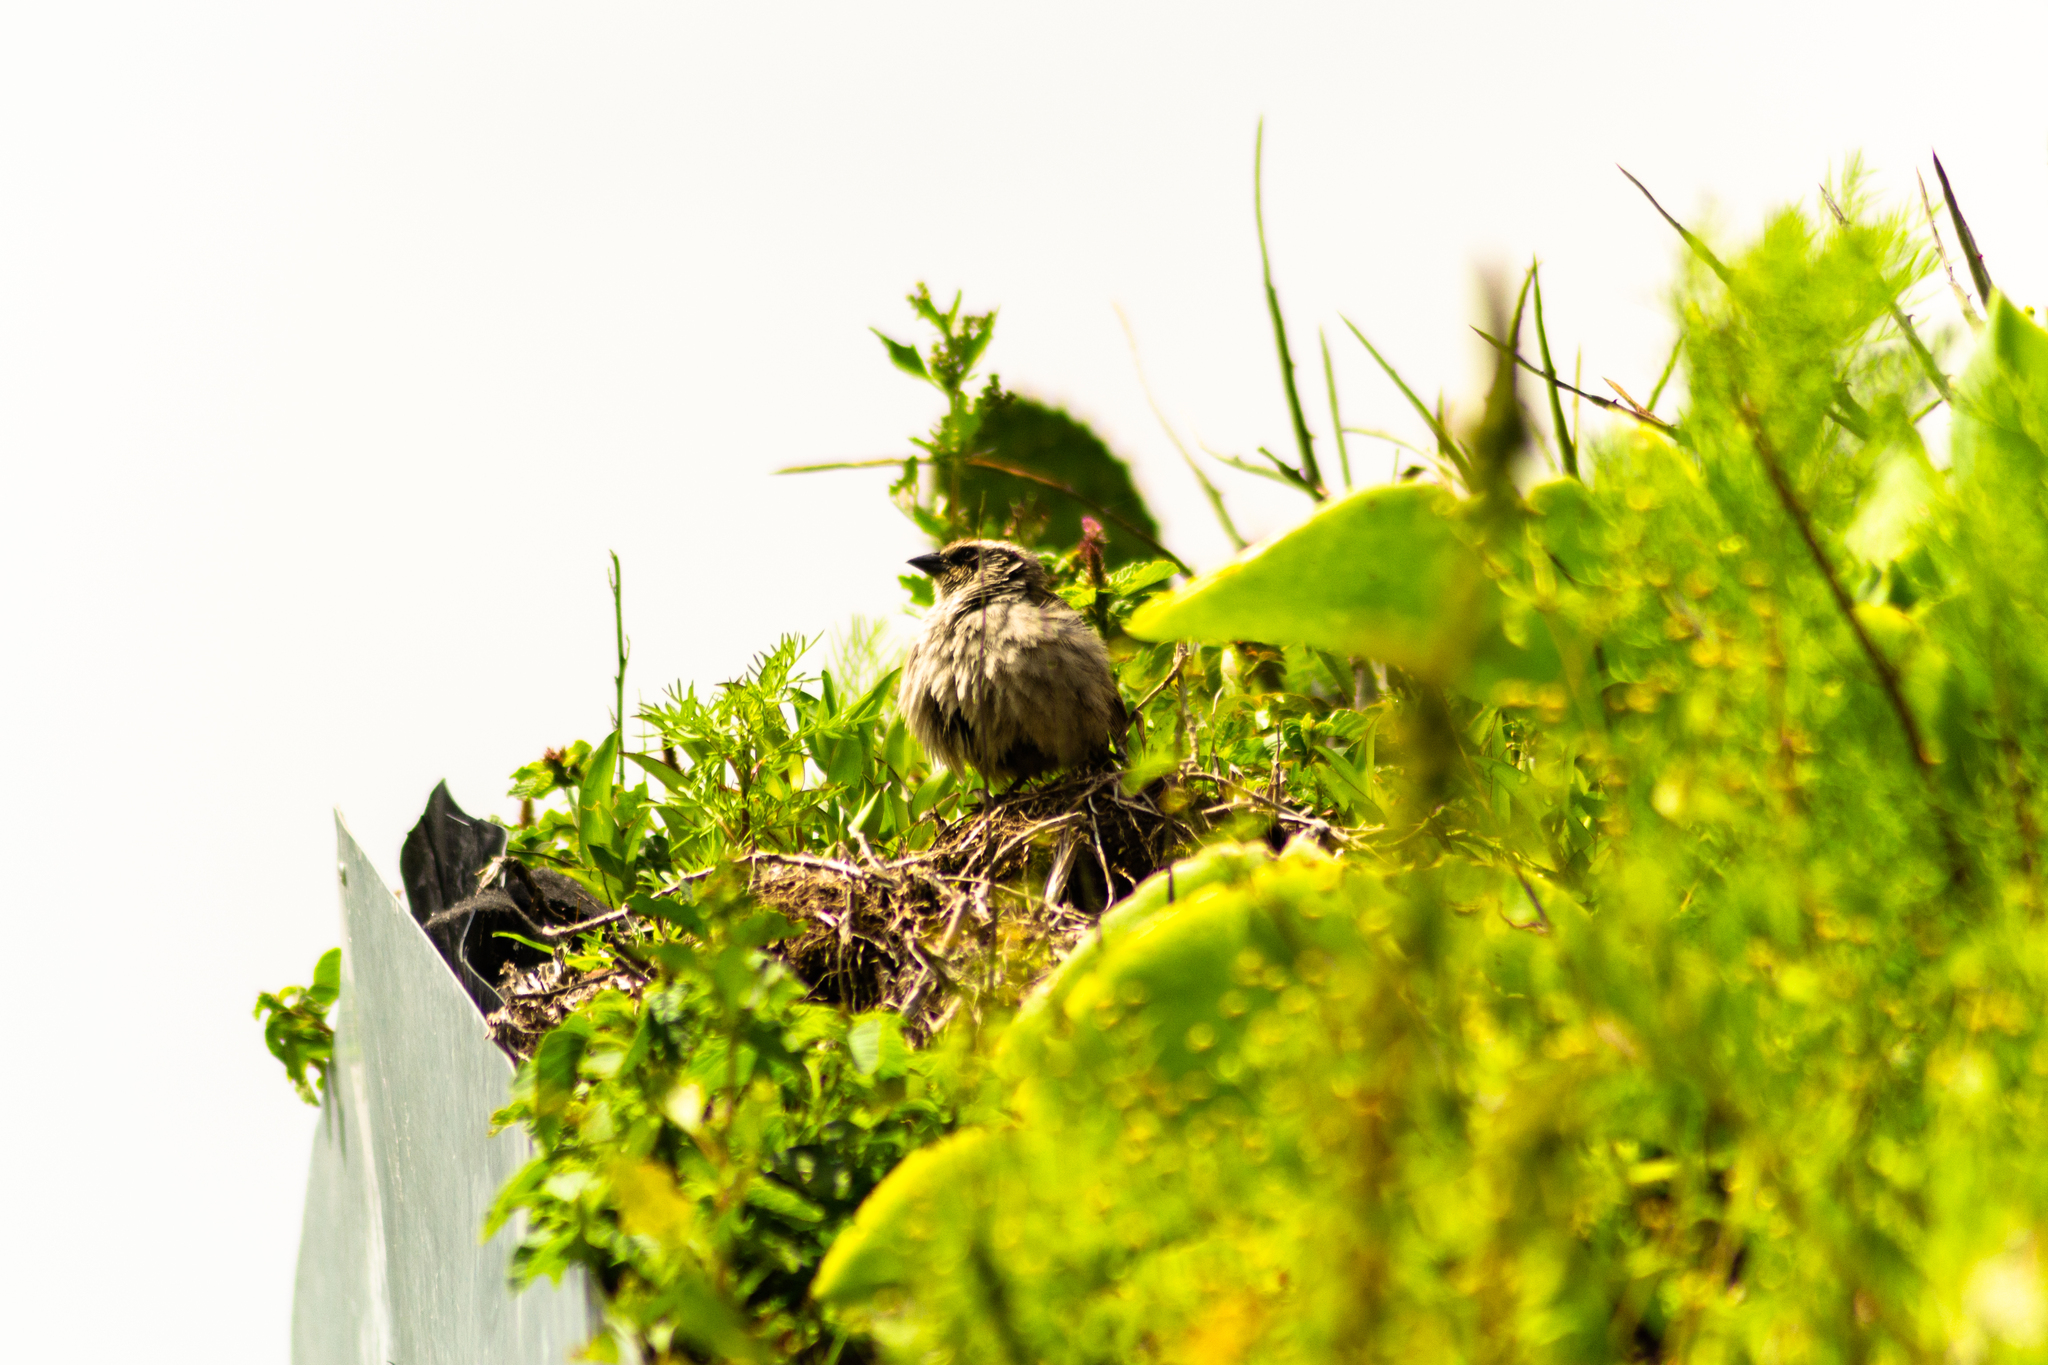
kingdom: Animalia
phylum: Chordata
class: Aves
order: Passeriformes
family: Passerellidae
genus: Oriturus
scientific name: Oriturus superciliosus
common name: Striped sparrow
